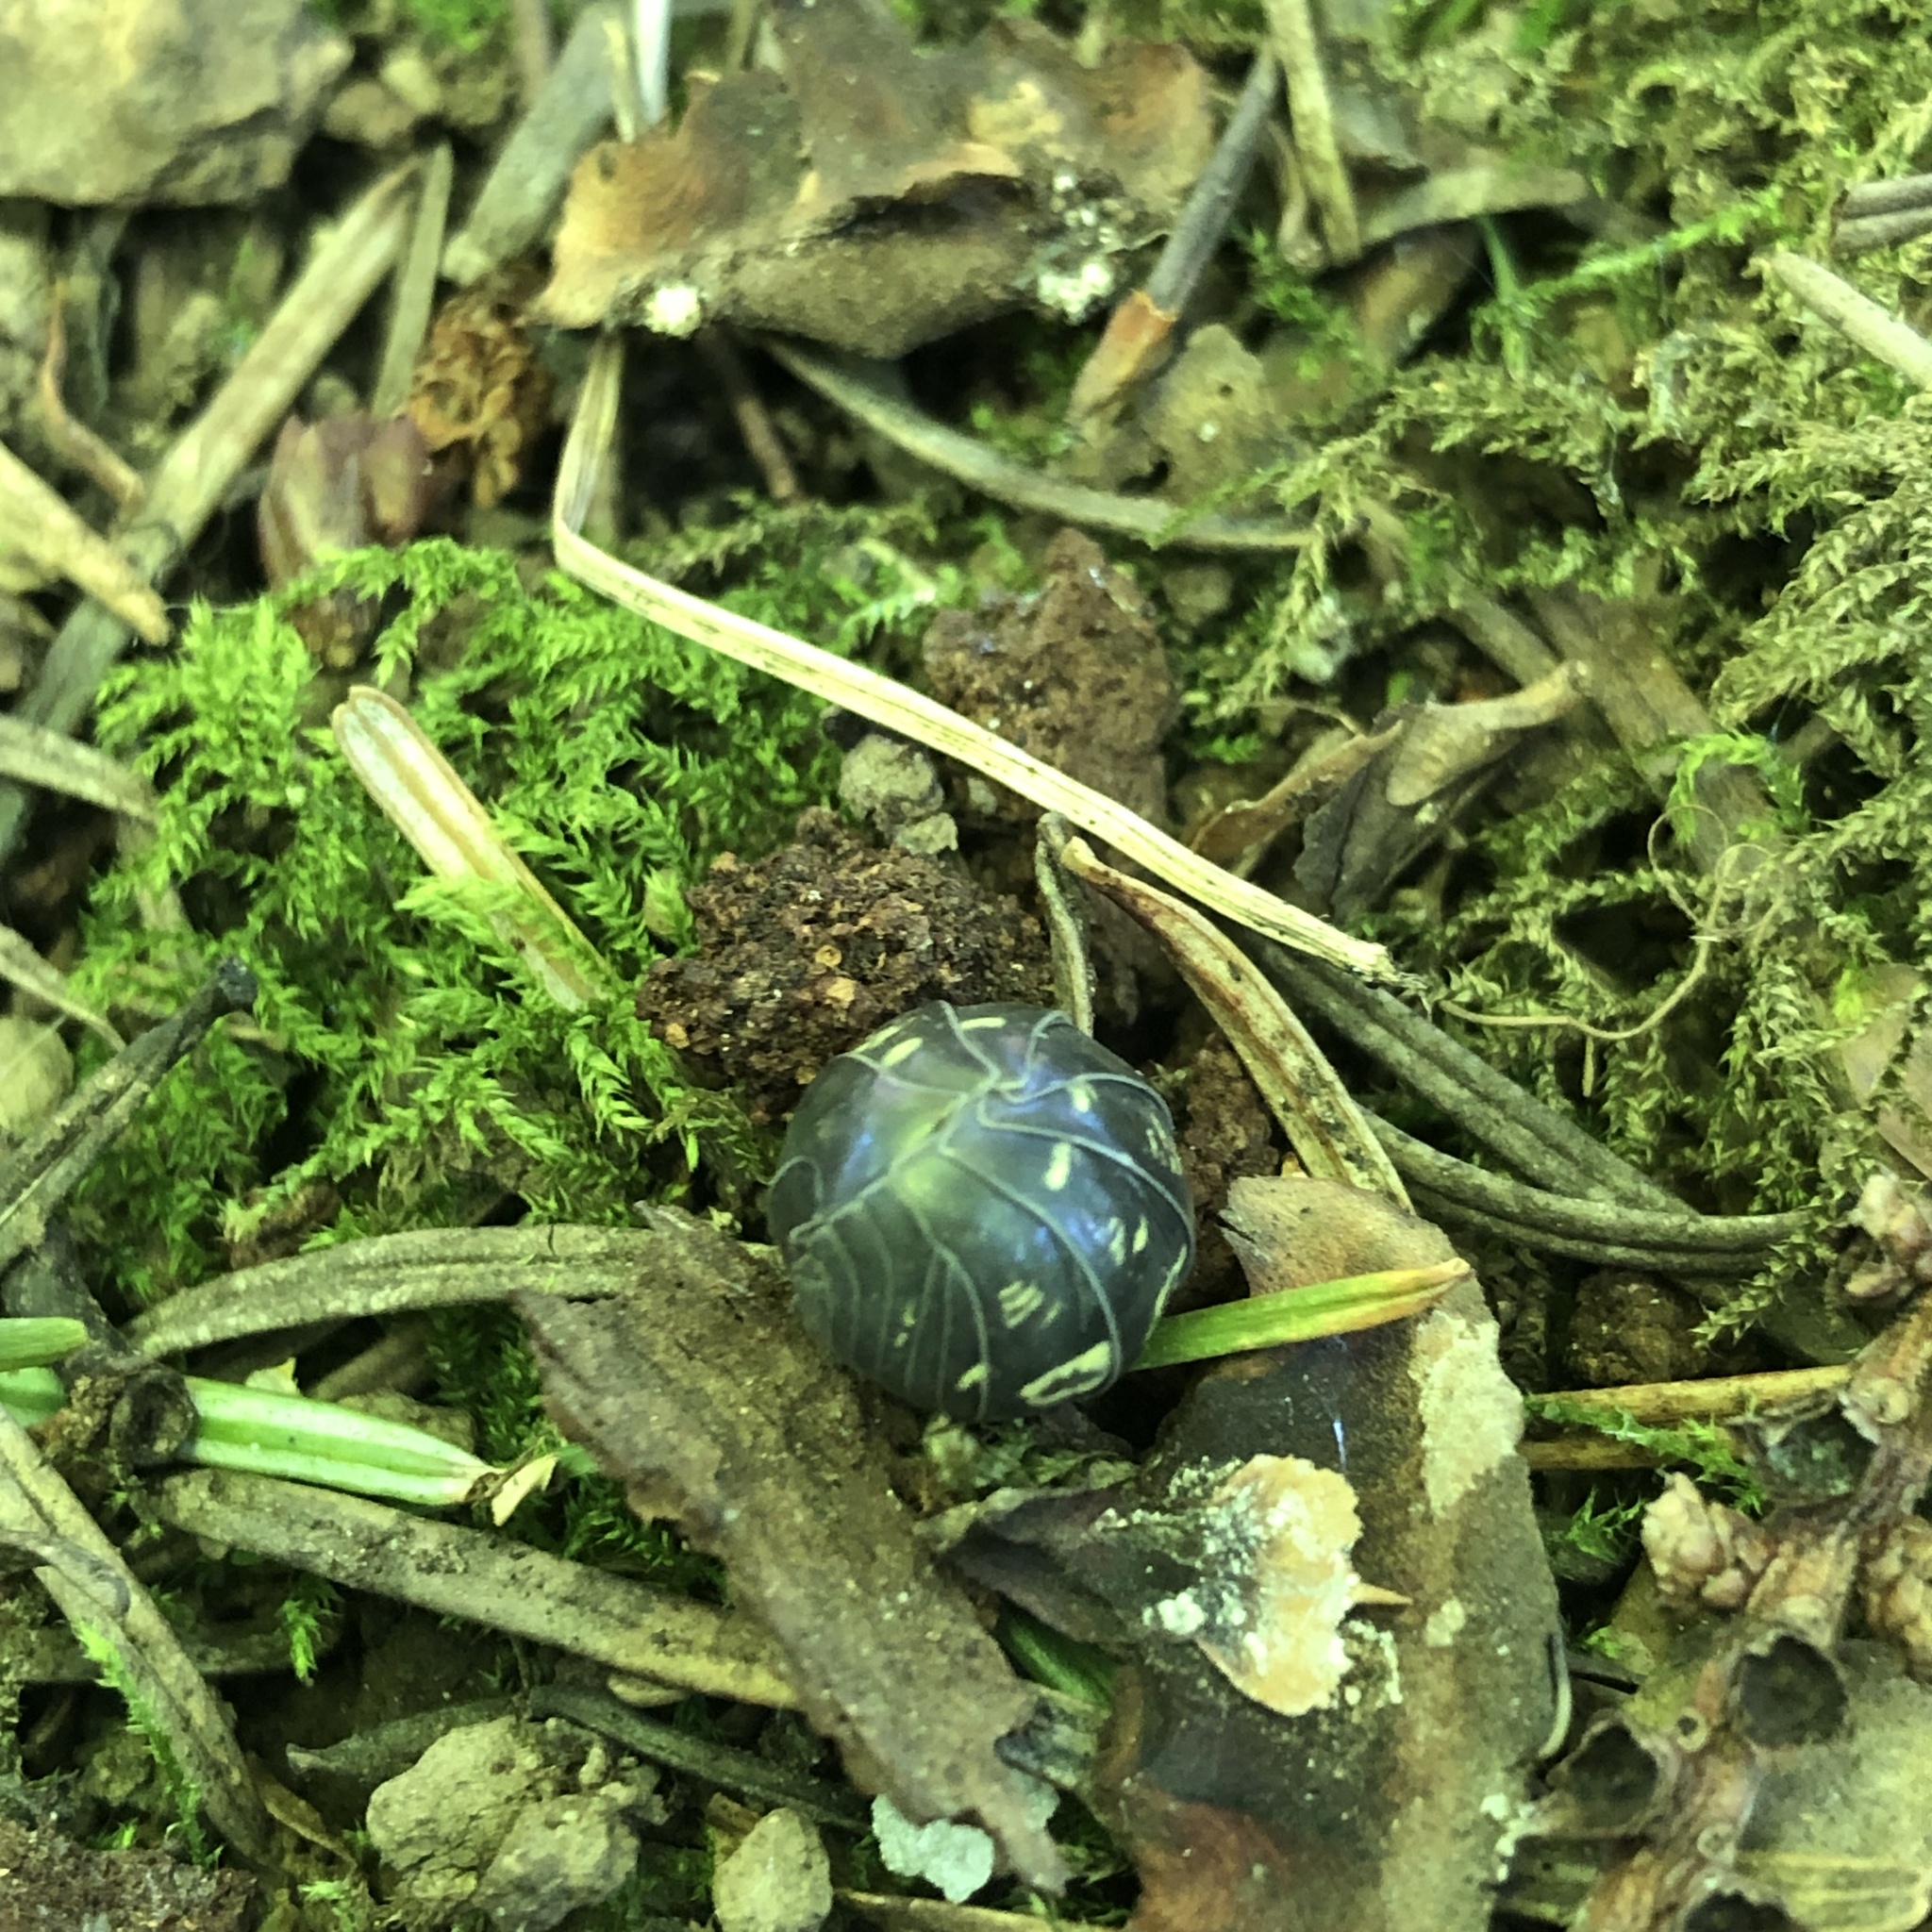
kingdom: Animalia
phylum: Arthropoda
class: Malacostraca
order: Isopoda
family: Armadillidiidae
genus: Armadillidium
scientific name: Armadillidium vulgare
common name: Common pill woodlouse
